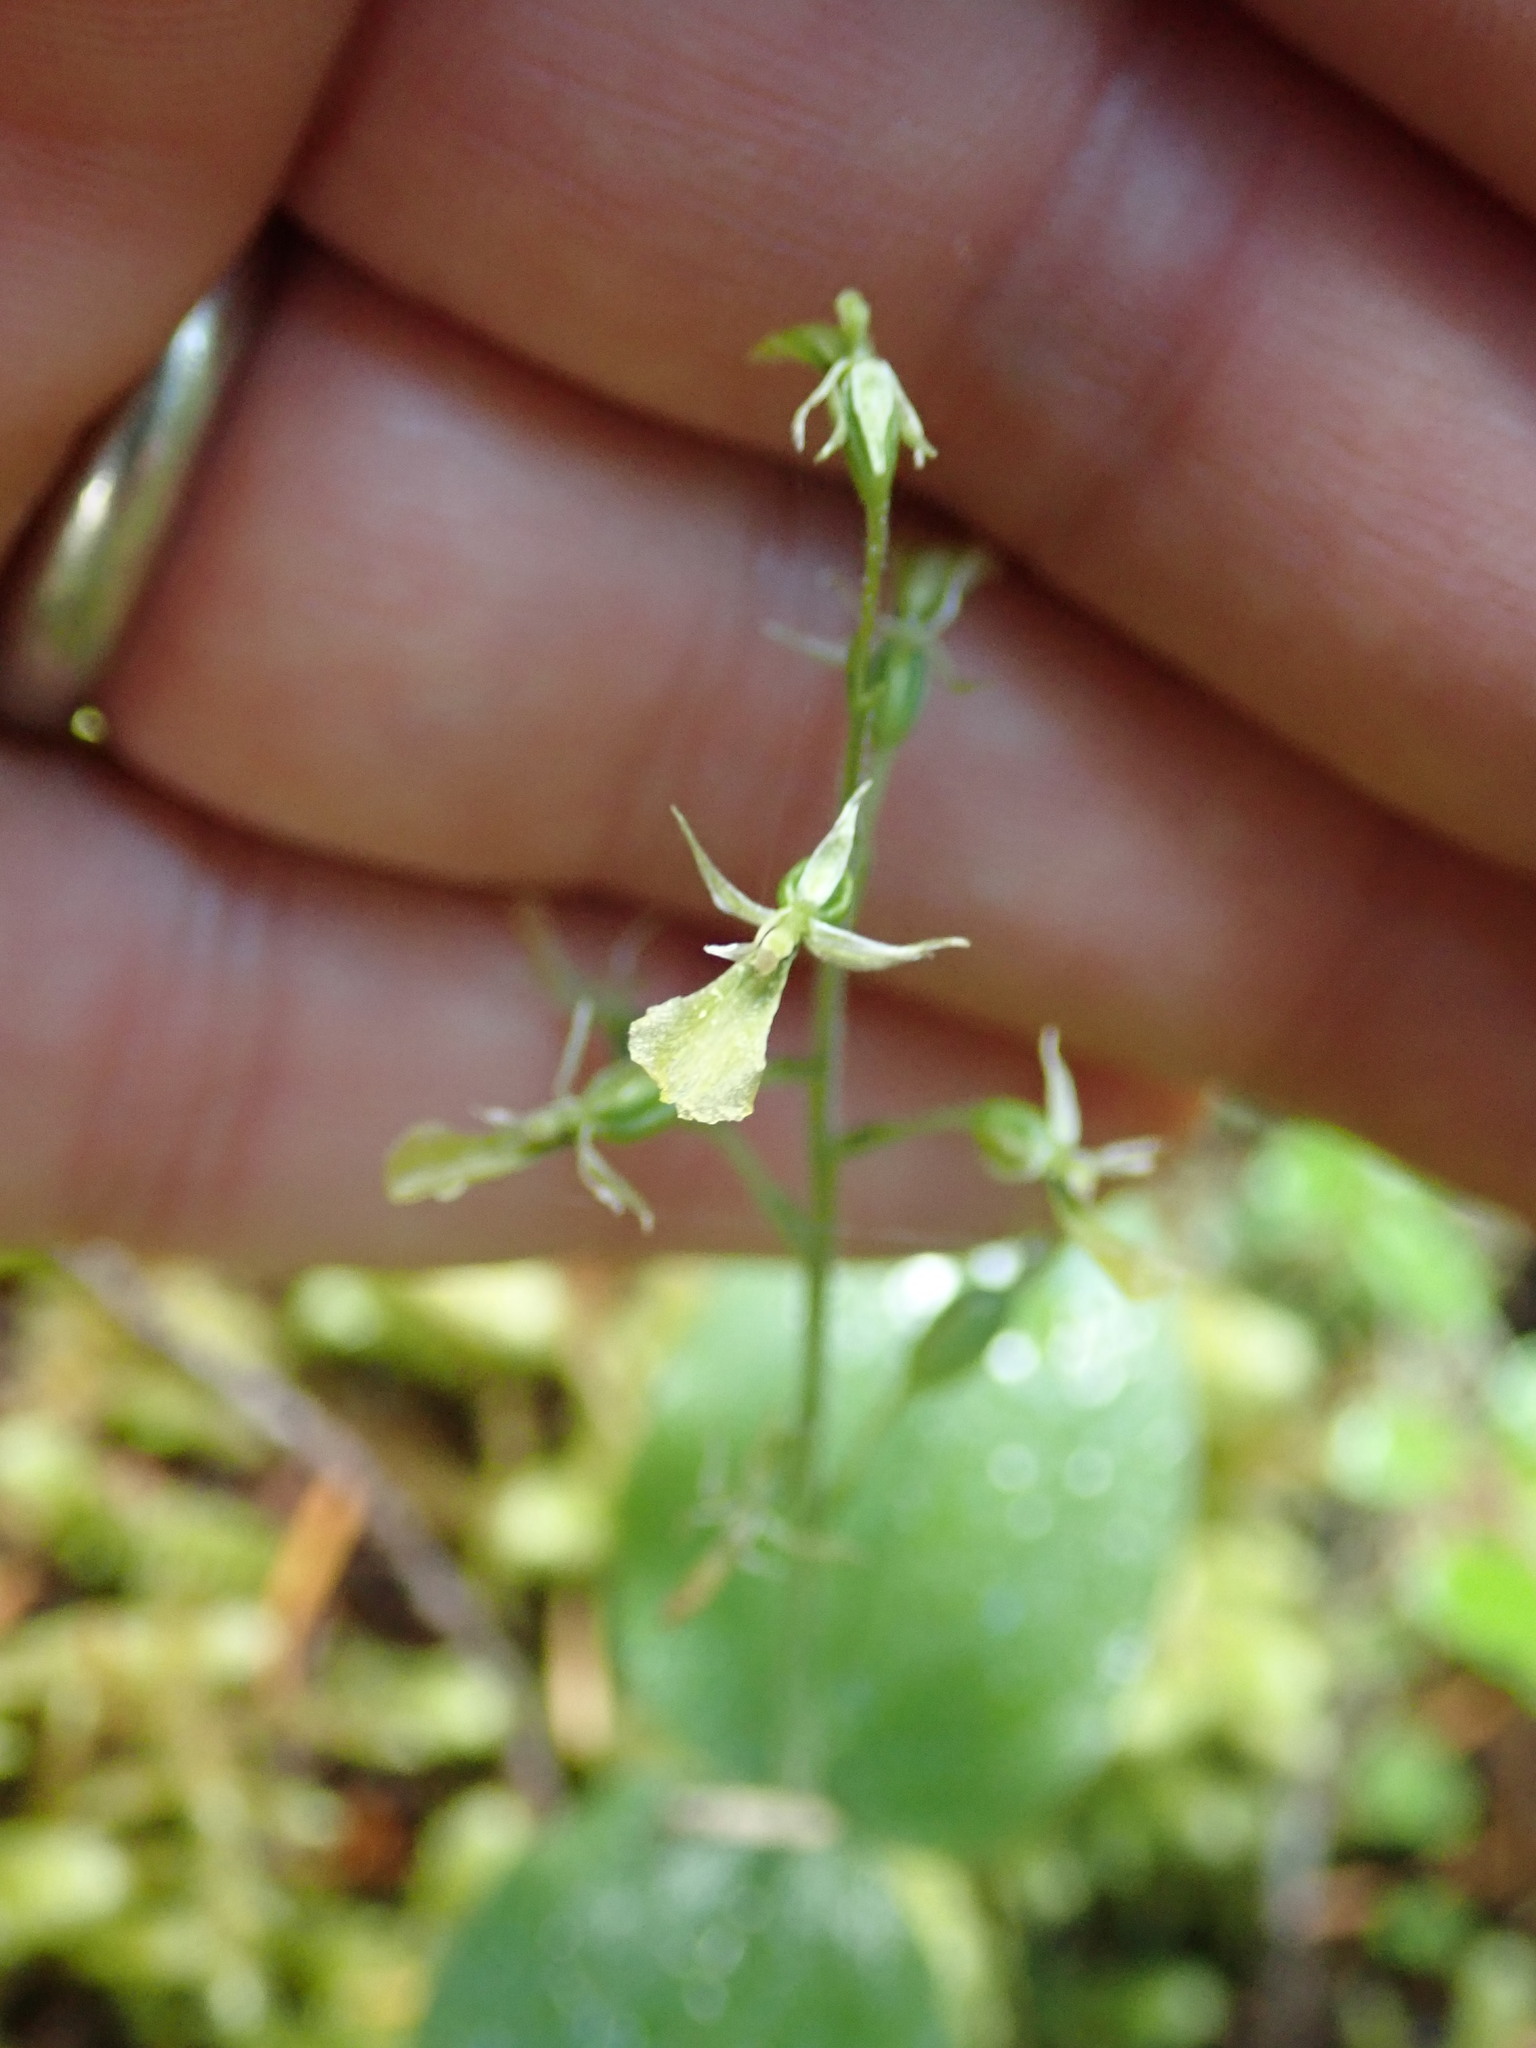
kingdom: Plantae
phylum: Tracheophyta
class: Liliopsida
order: Asparagales
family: Orchidaceae
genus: Neottia
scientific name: Neottia banksiana
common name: Northwestern twayblade
